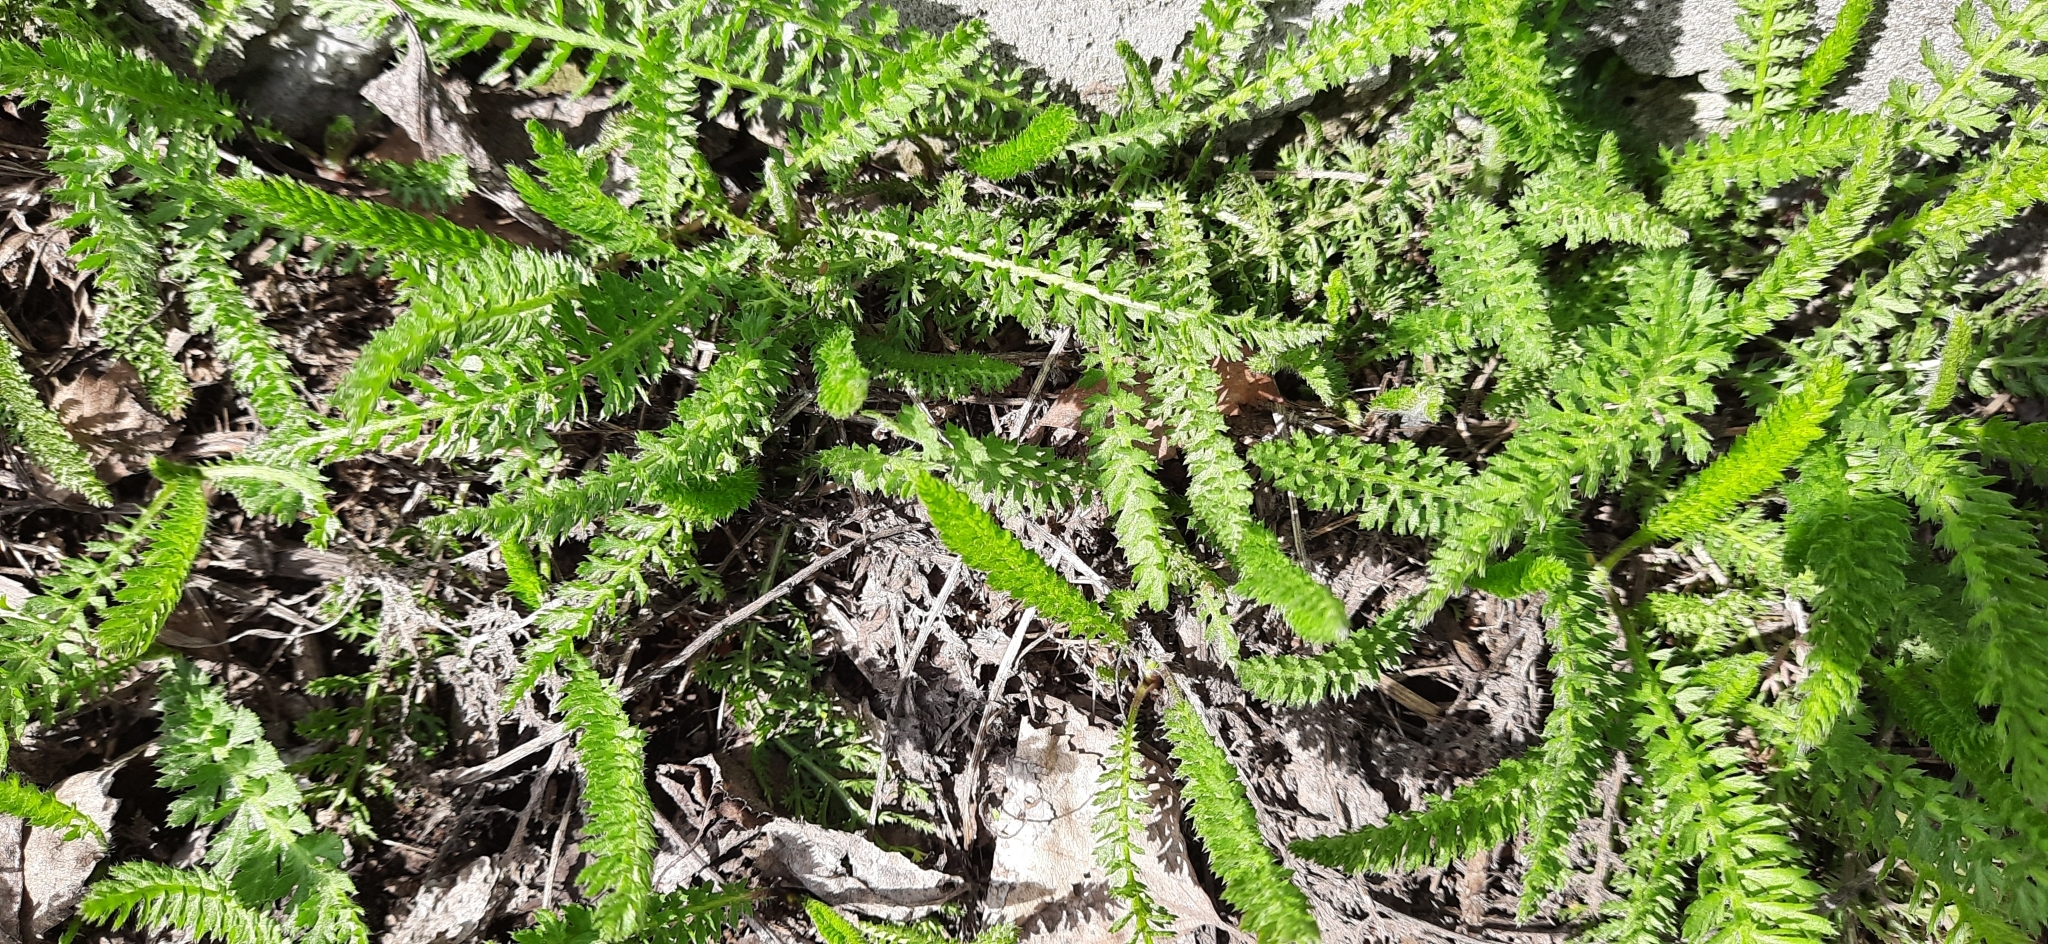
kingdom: Plantae
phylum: Tracheophyta
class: Magnoliopsida
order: Asterales
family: Asteraceae
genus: Achillea
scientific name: Achillea millefolium
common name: Yarrow
